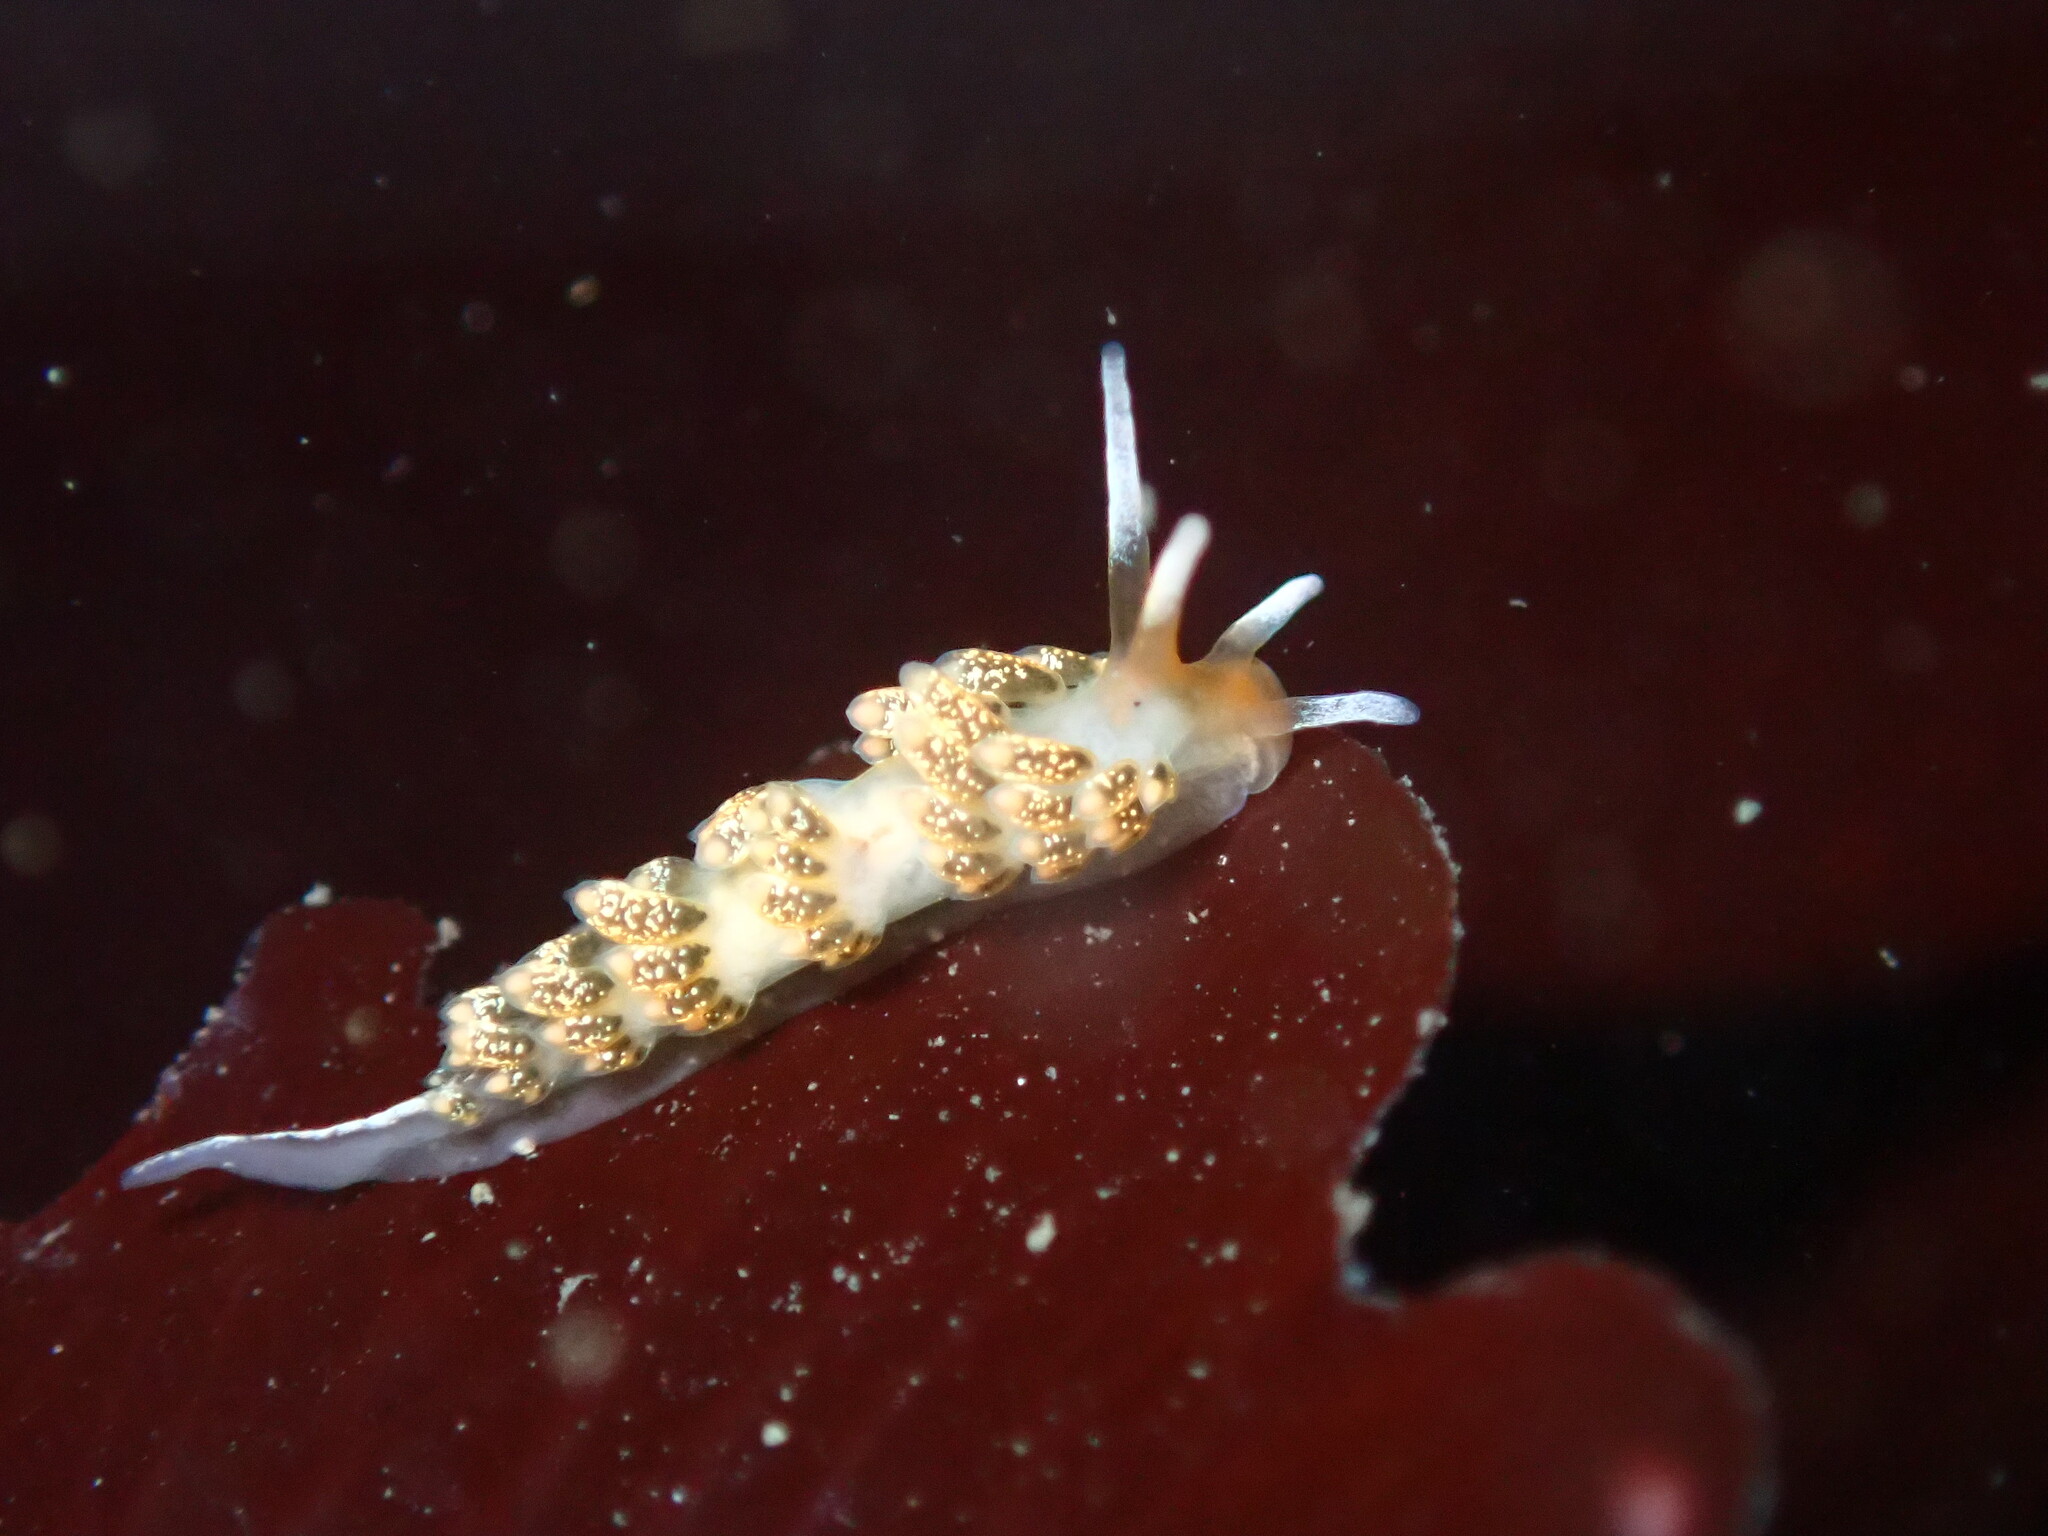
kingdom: Animalia
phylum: Mollusca
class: Gastropoda
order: Nudibranchia
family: Trinchesiidae
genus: Diaphoreolis
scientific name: Diaphoreolis flavovulta
